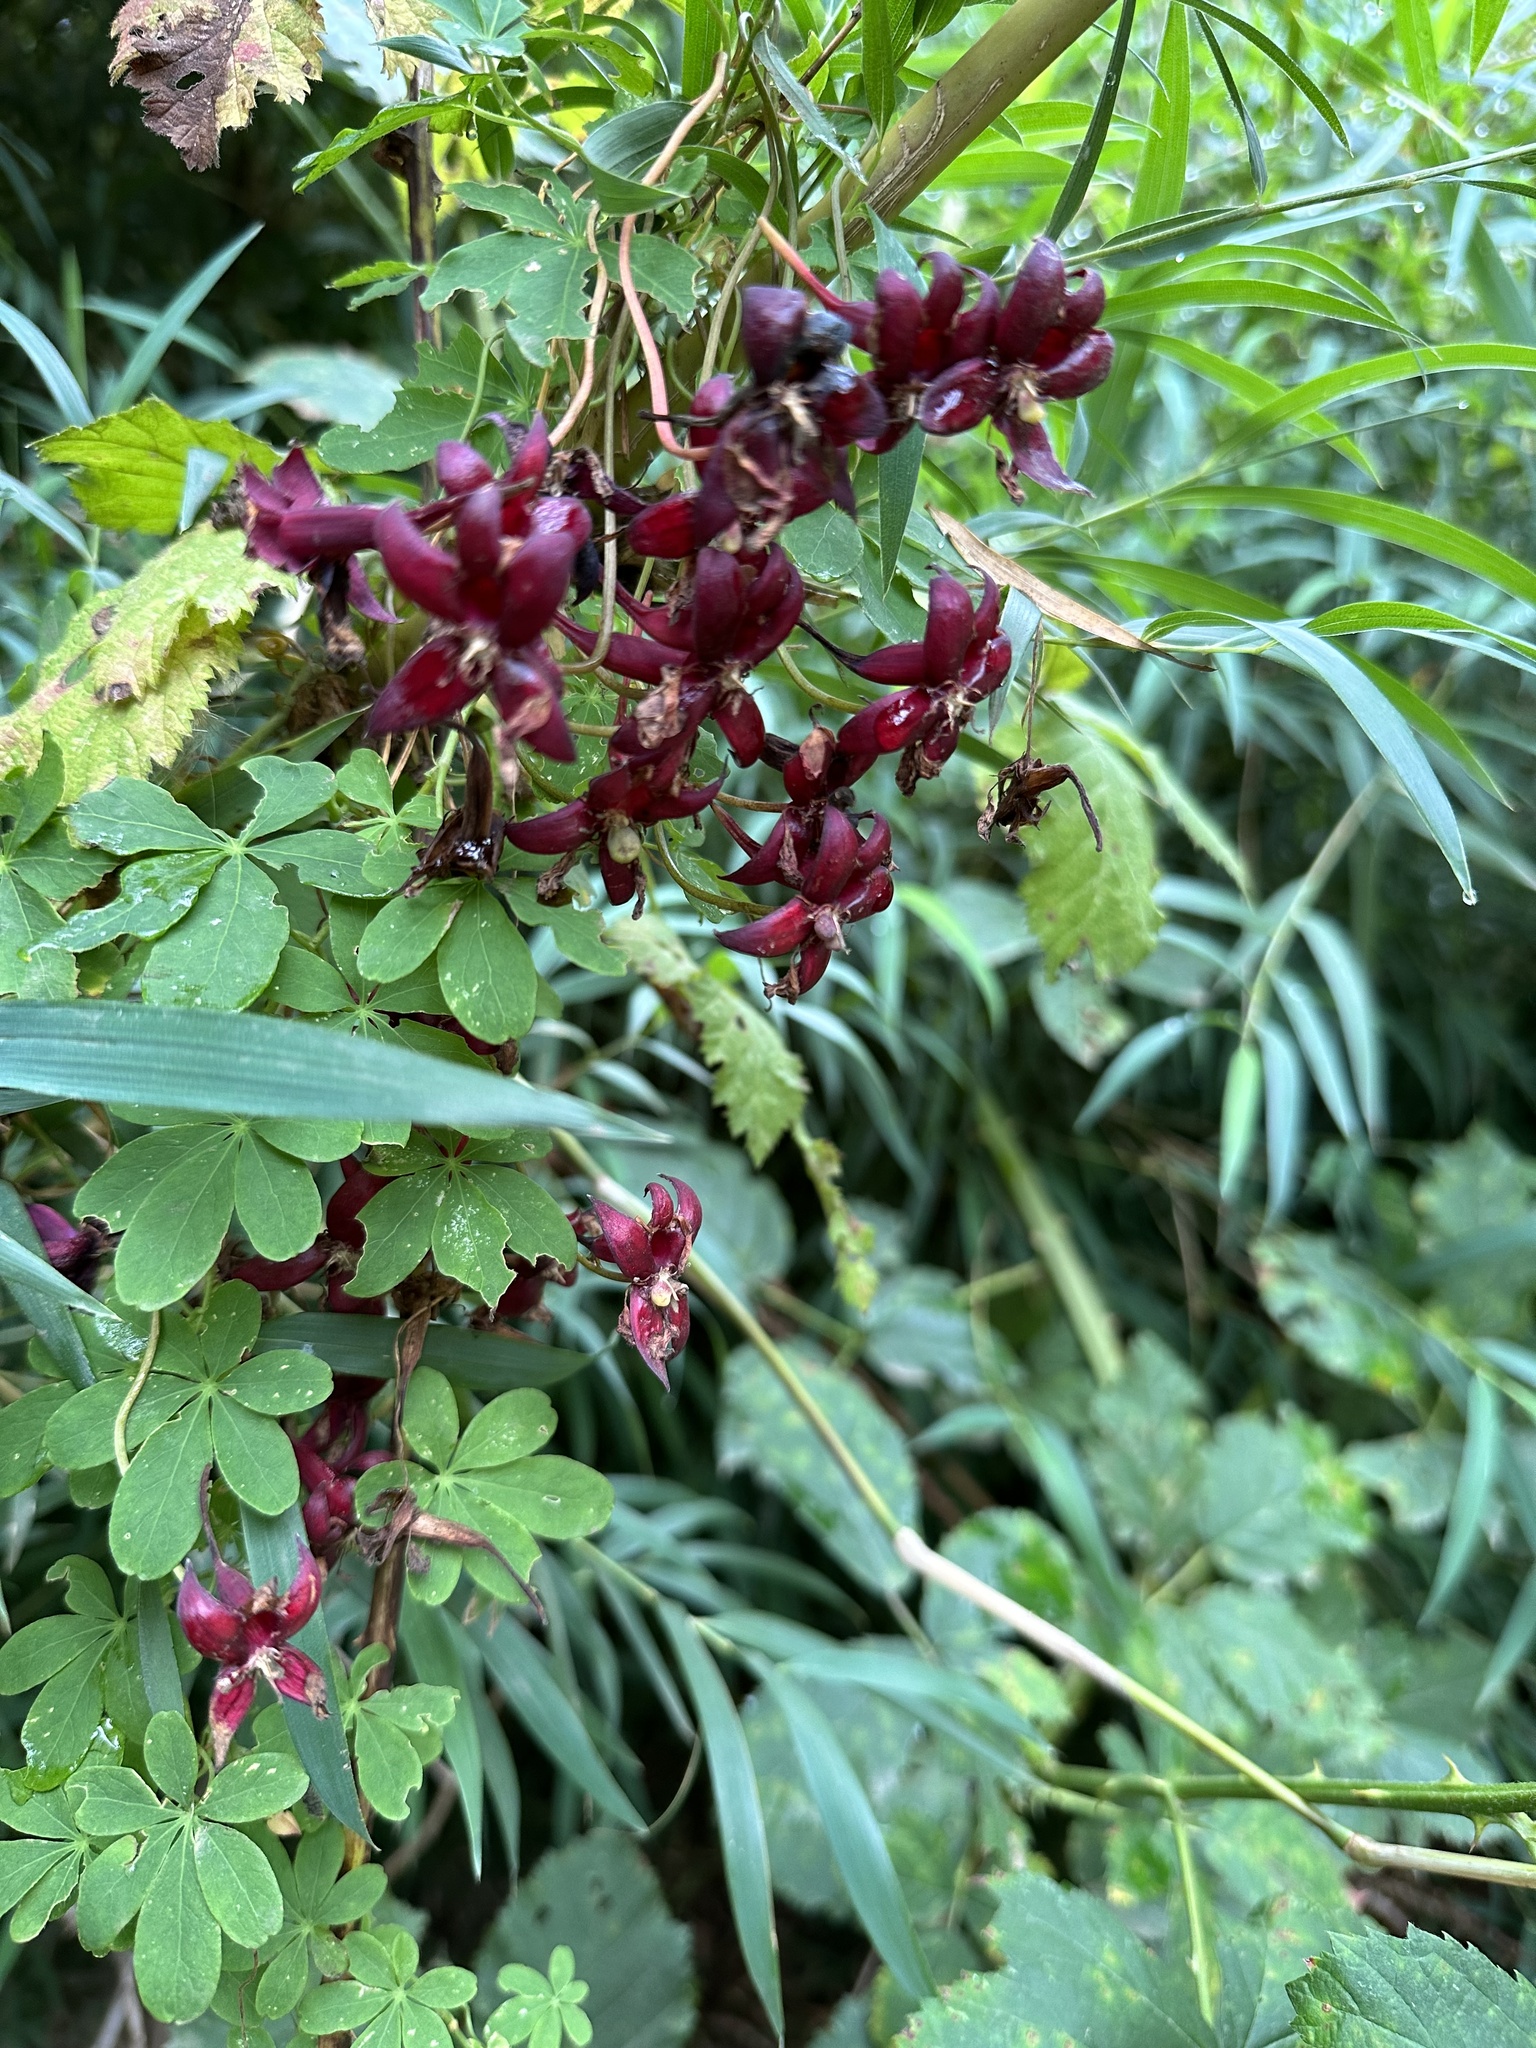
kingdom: Plantae
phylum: Tracheophyta
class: Magnoliopsida
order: Brassicales
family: Tropaeolaceae
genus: Tropaeolum
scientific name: Tropaeolum speciosum
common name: Flame nasturtium
